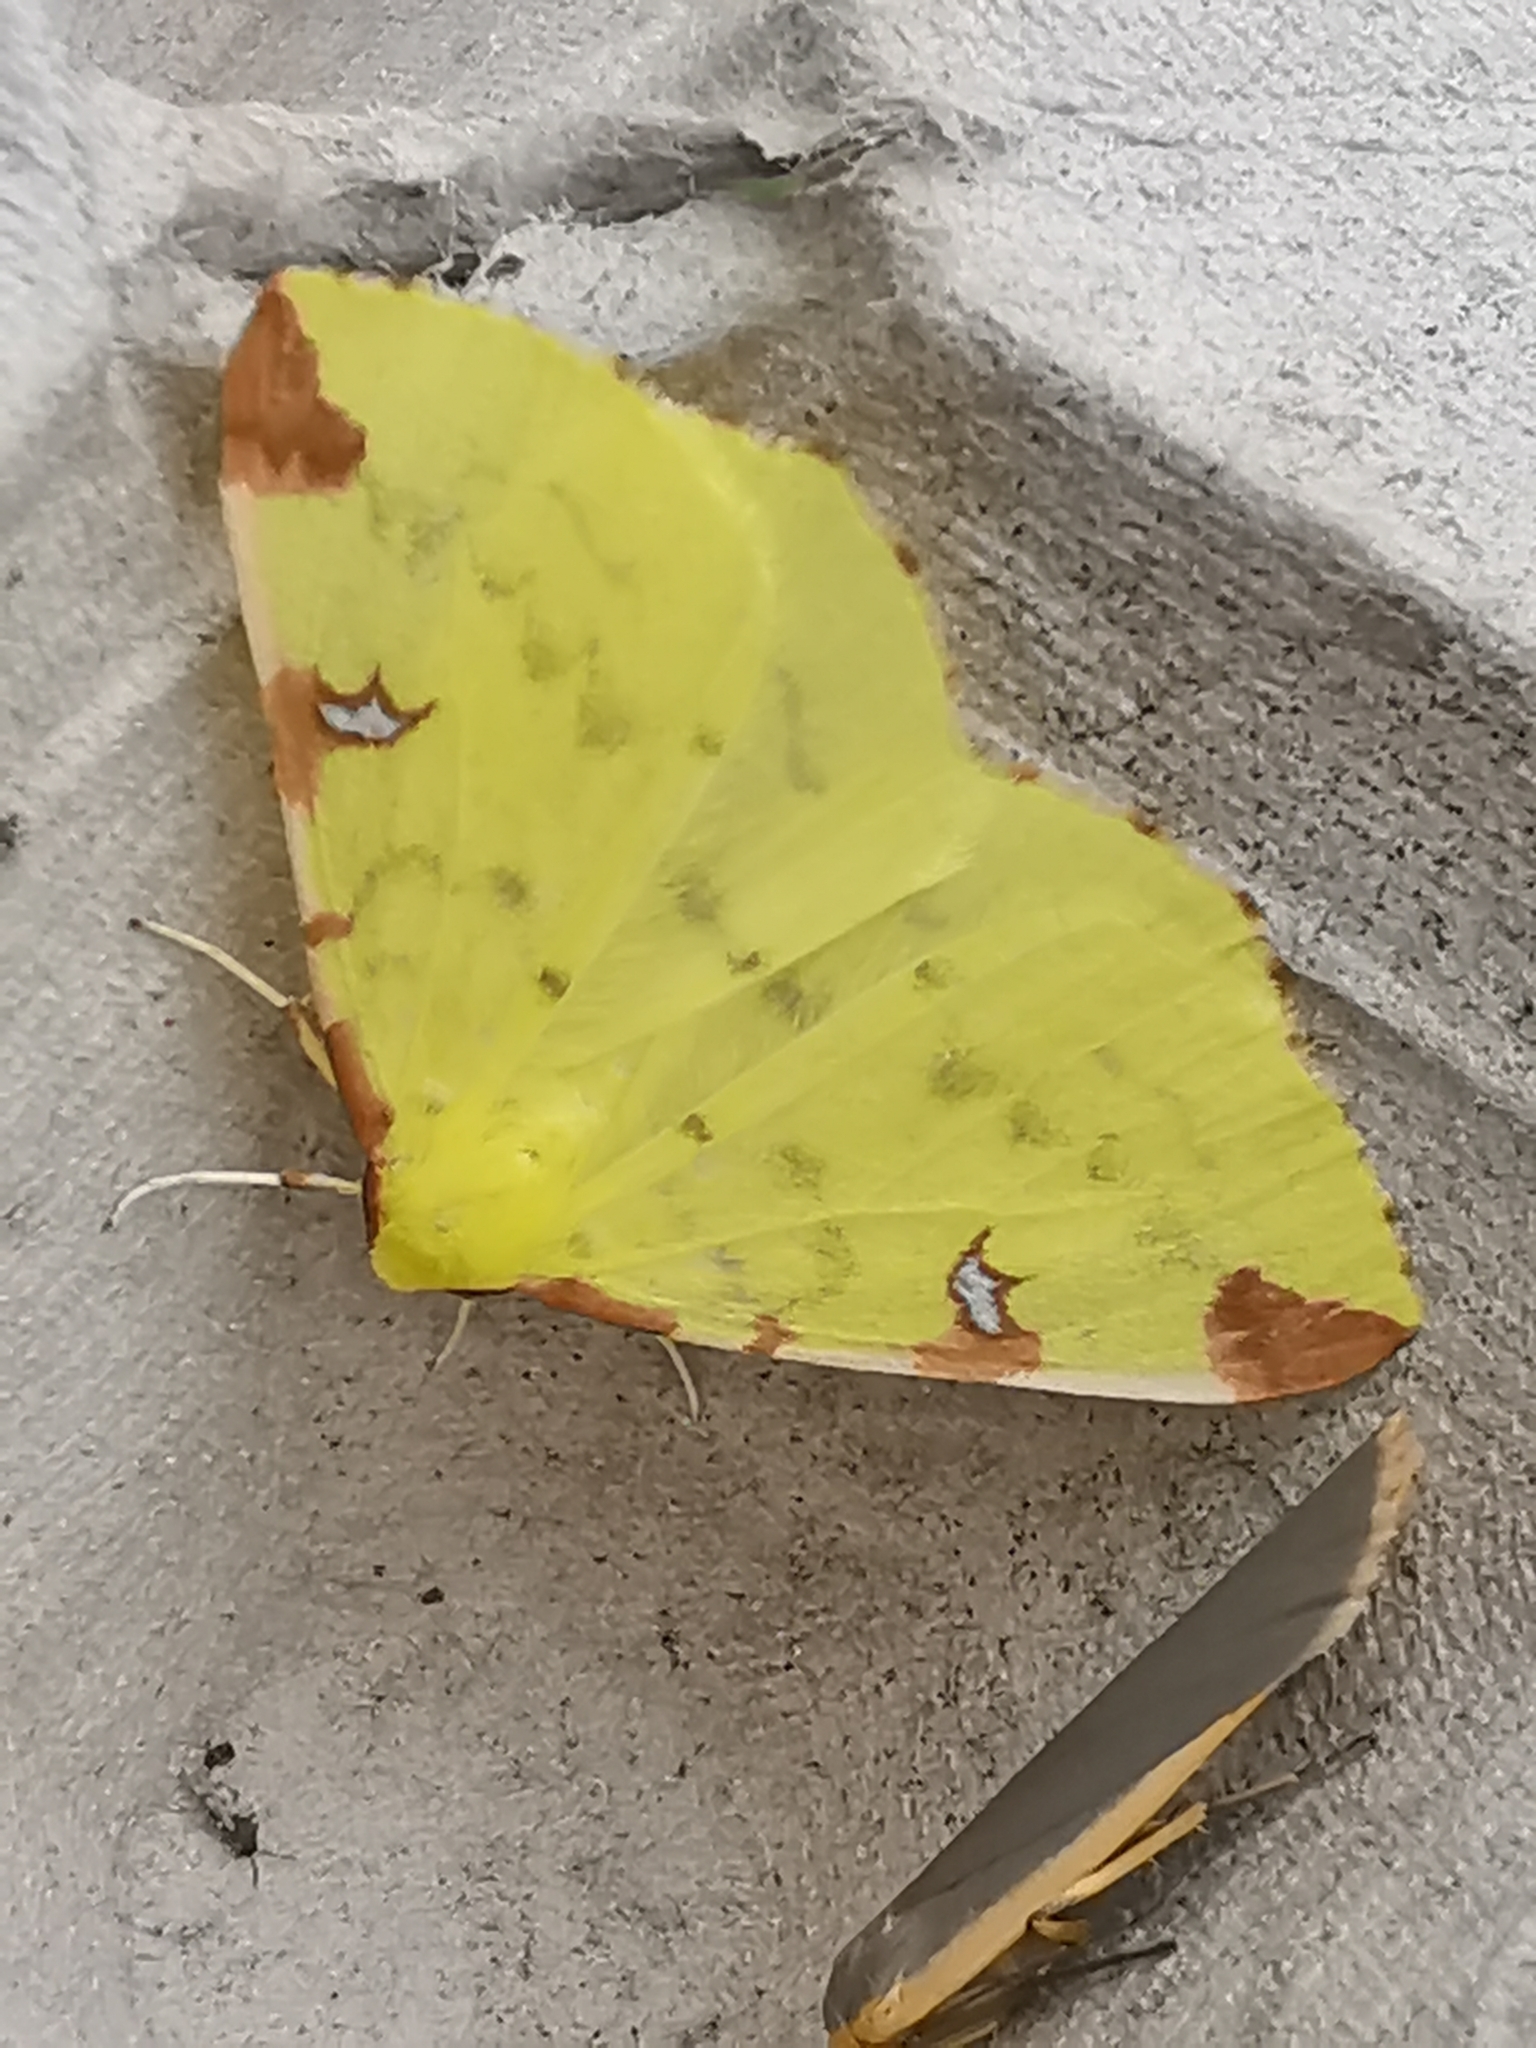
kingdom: Animalia
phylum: Arthropoda
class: Insecta
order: Lepidoptera
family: Geometridae
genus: Opisthograptis
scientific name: Opisthograptis luteolata
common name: Brimstone moth
